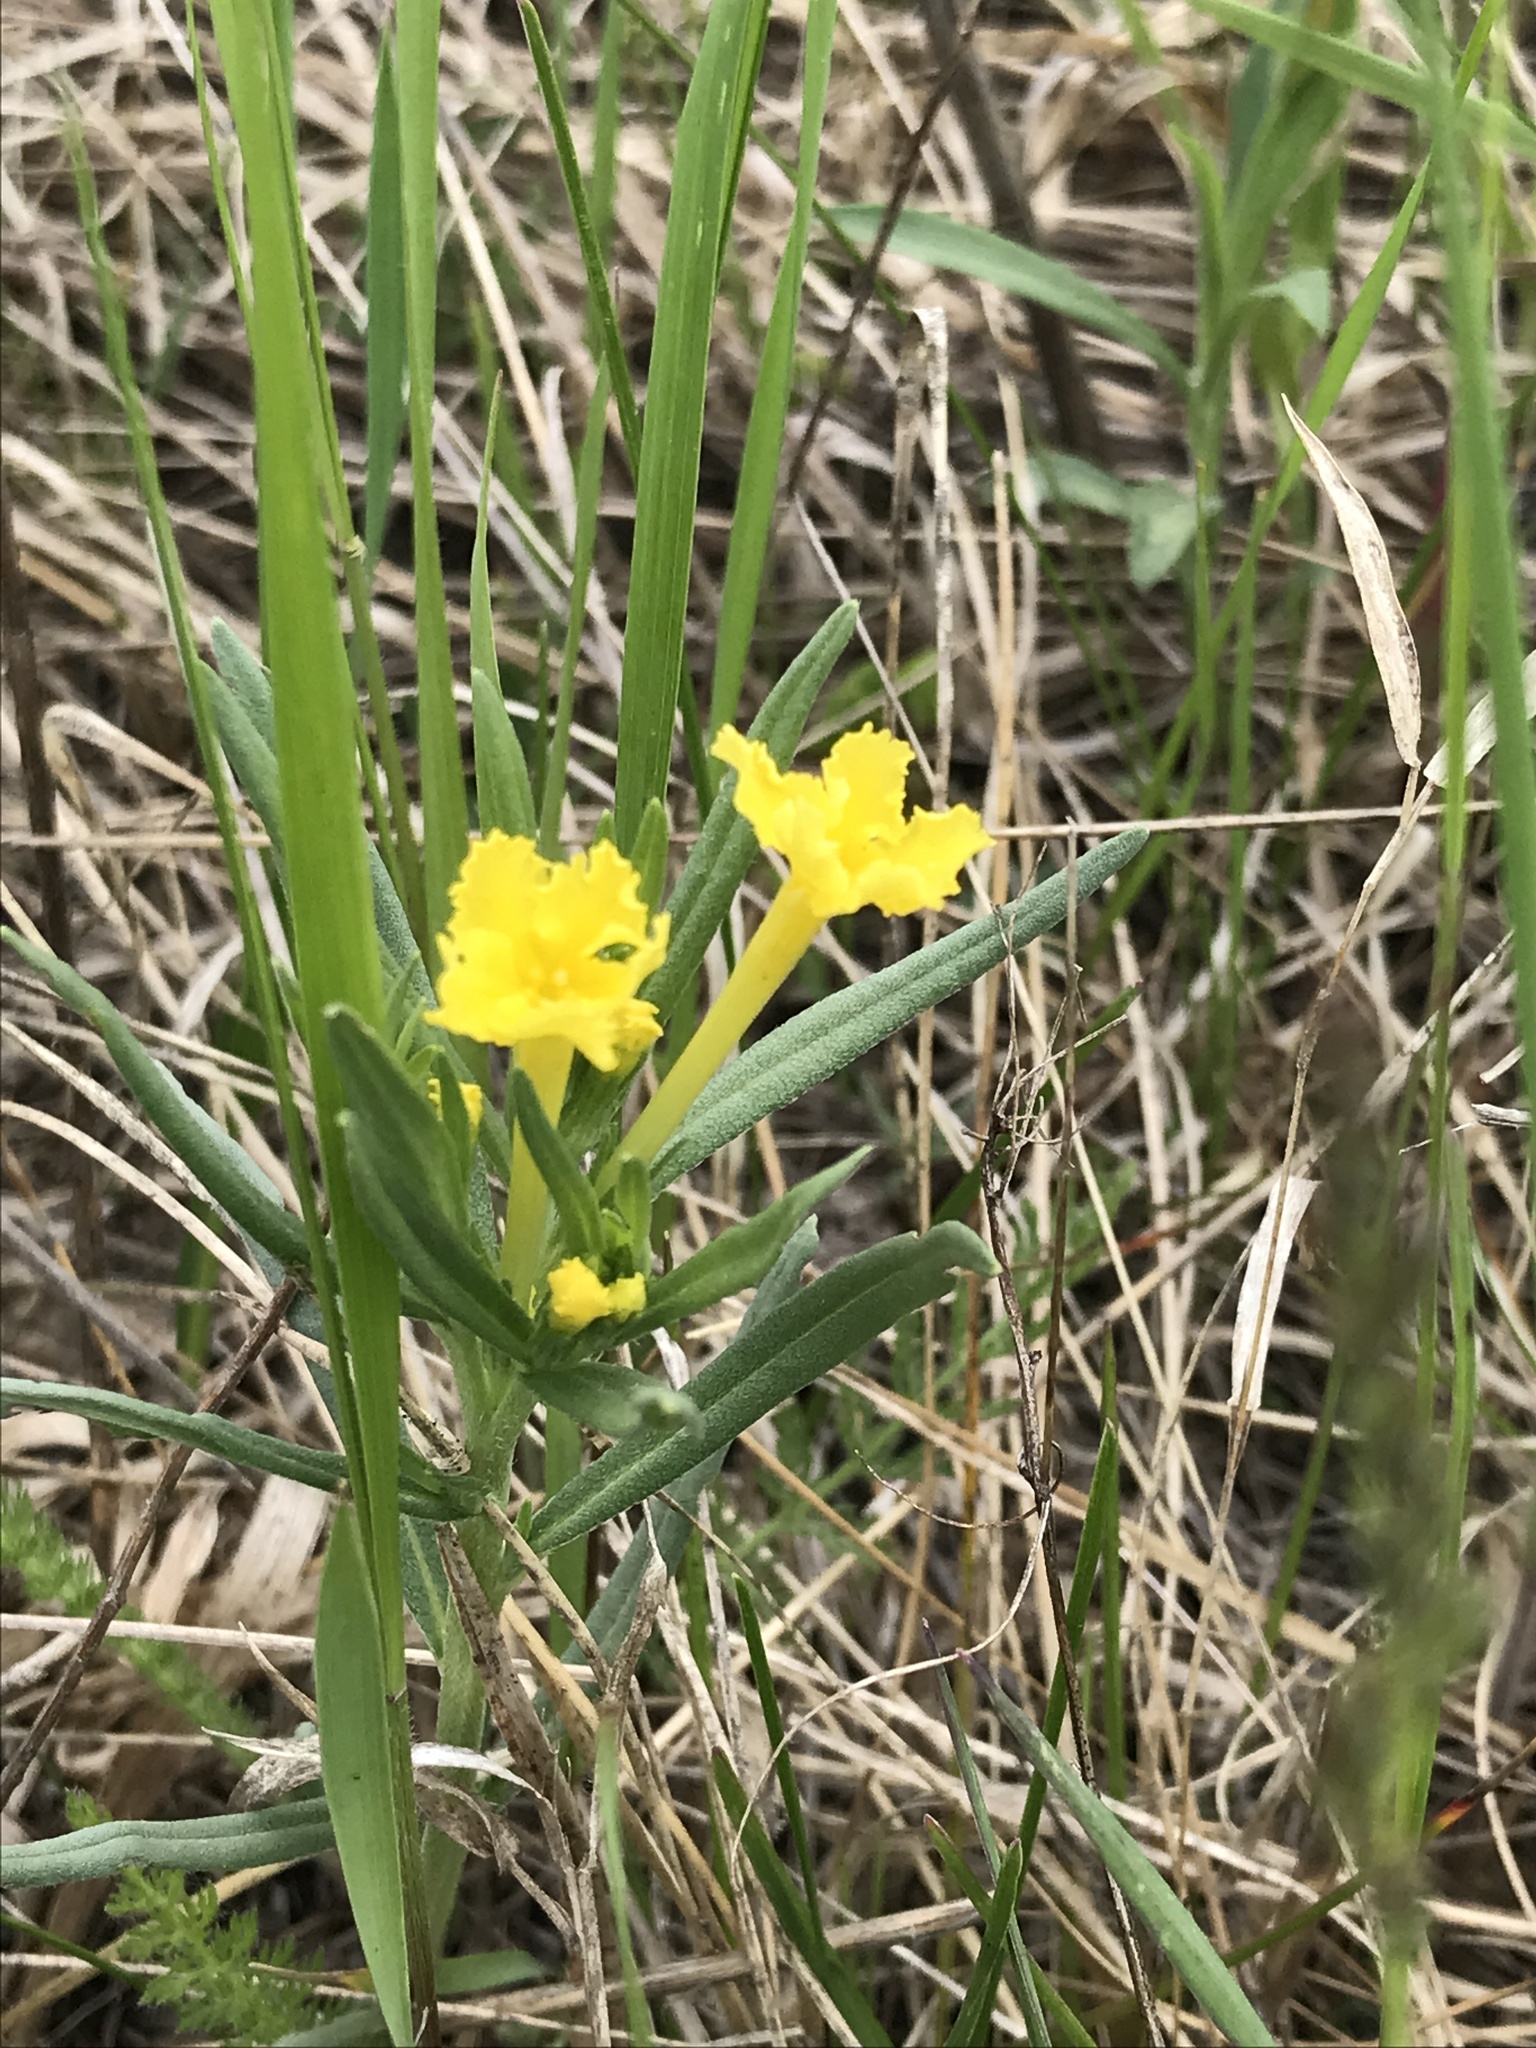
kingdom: Plantae
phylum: Tracheophyta
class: Magnoliopsida
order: Boraginales
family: Boraginaceae
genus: Lithospermum
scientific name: Lithospermum incisum
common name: Fringed gromwell
